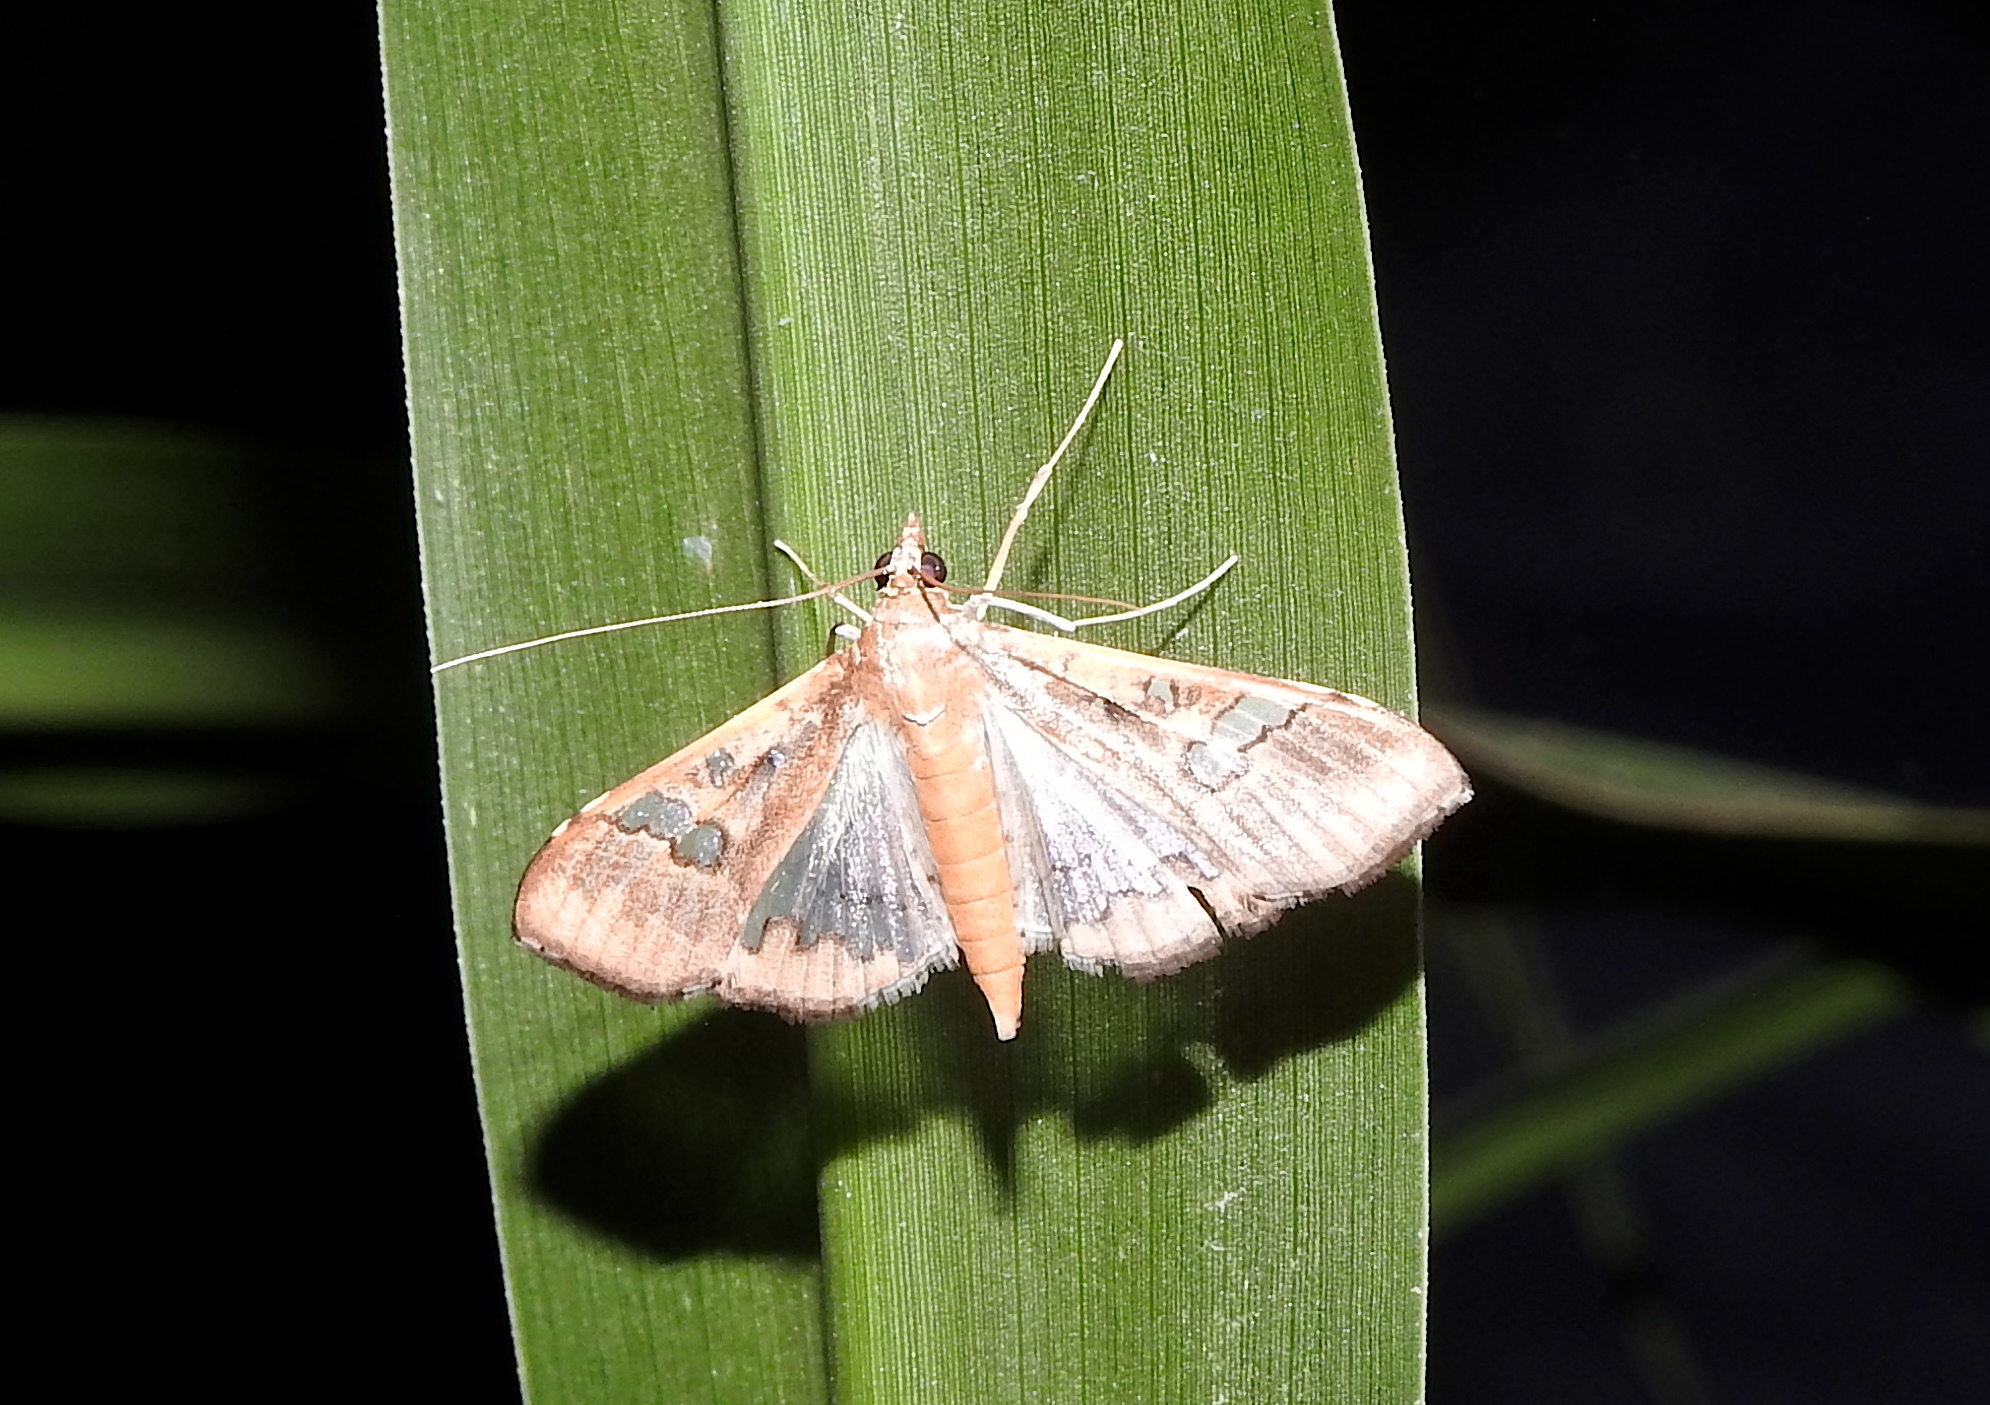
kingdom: Animalia
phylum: Arthropoda
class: Insecta
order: Lepidoptera
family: Crambidae
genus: Maruca
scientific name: Maruca vitrata
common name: Maruca pod borer
